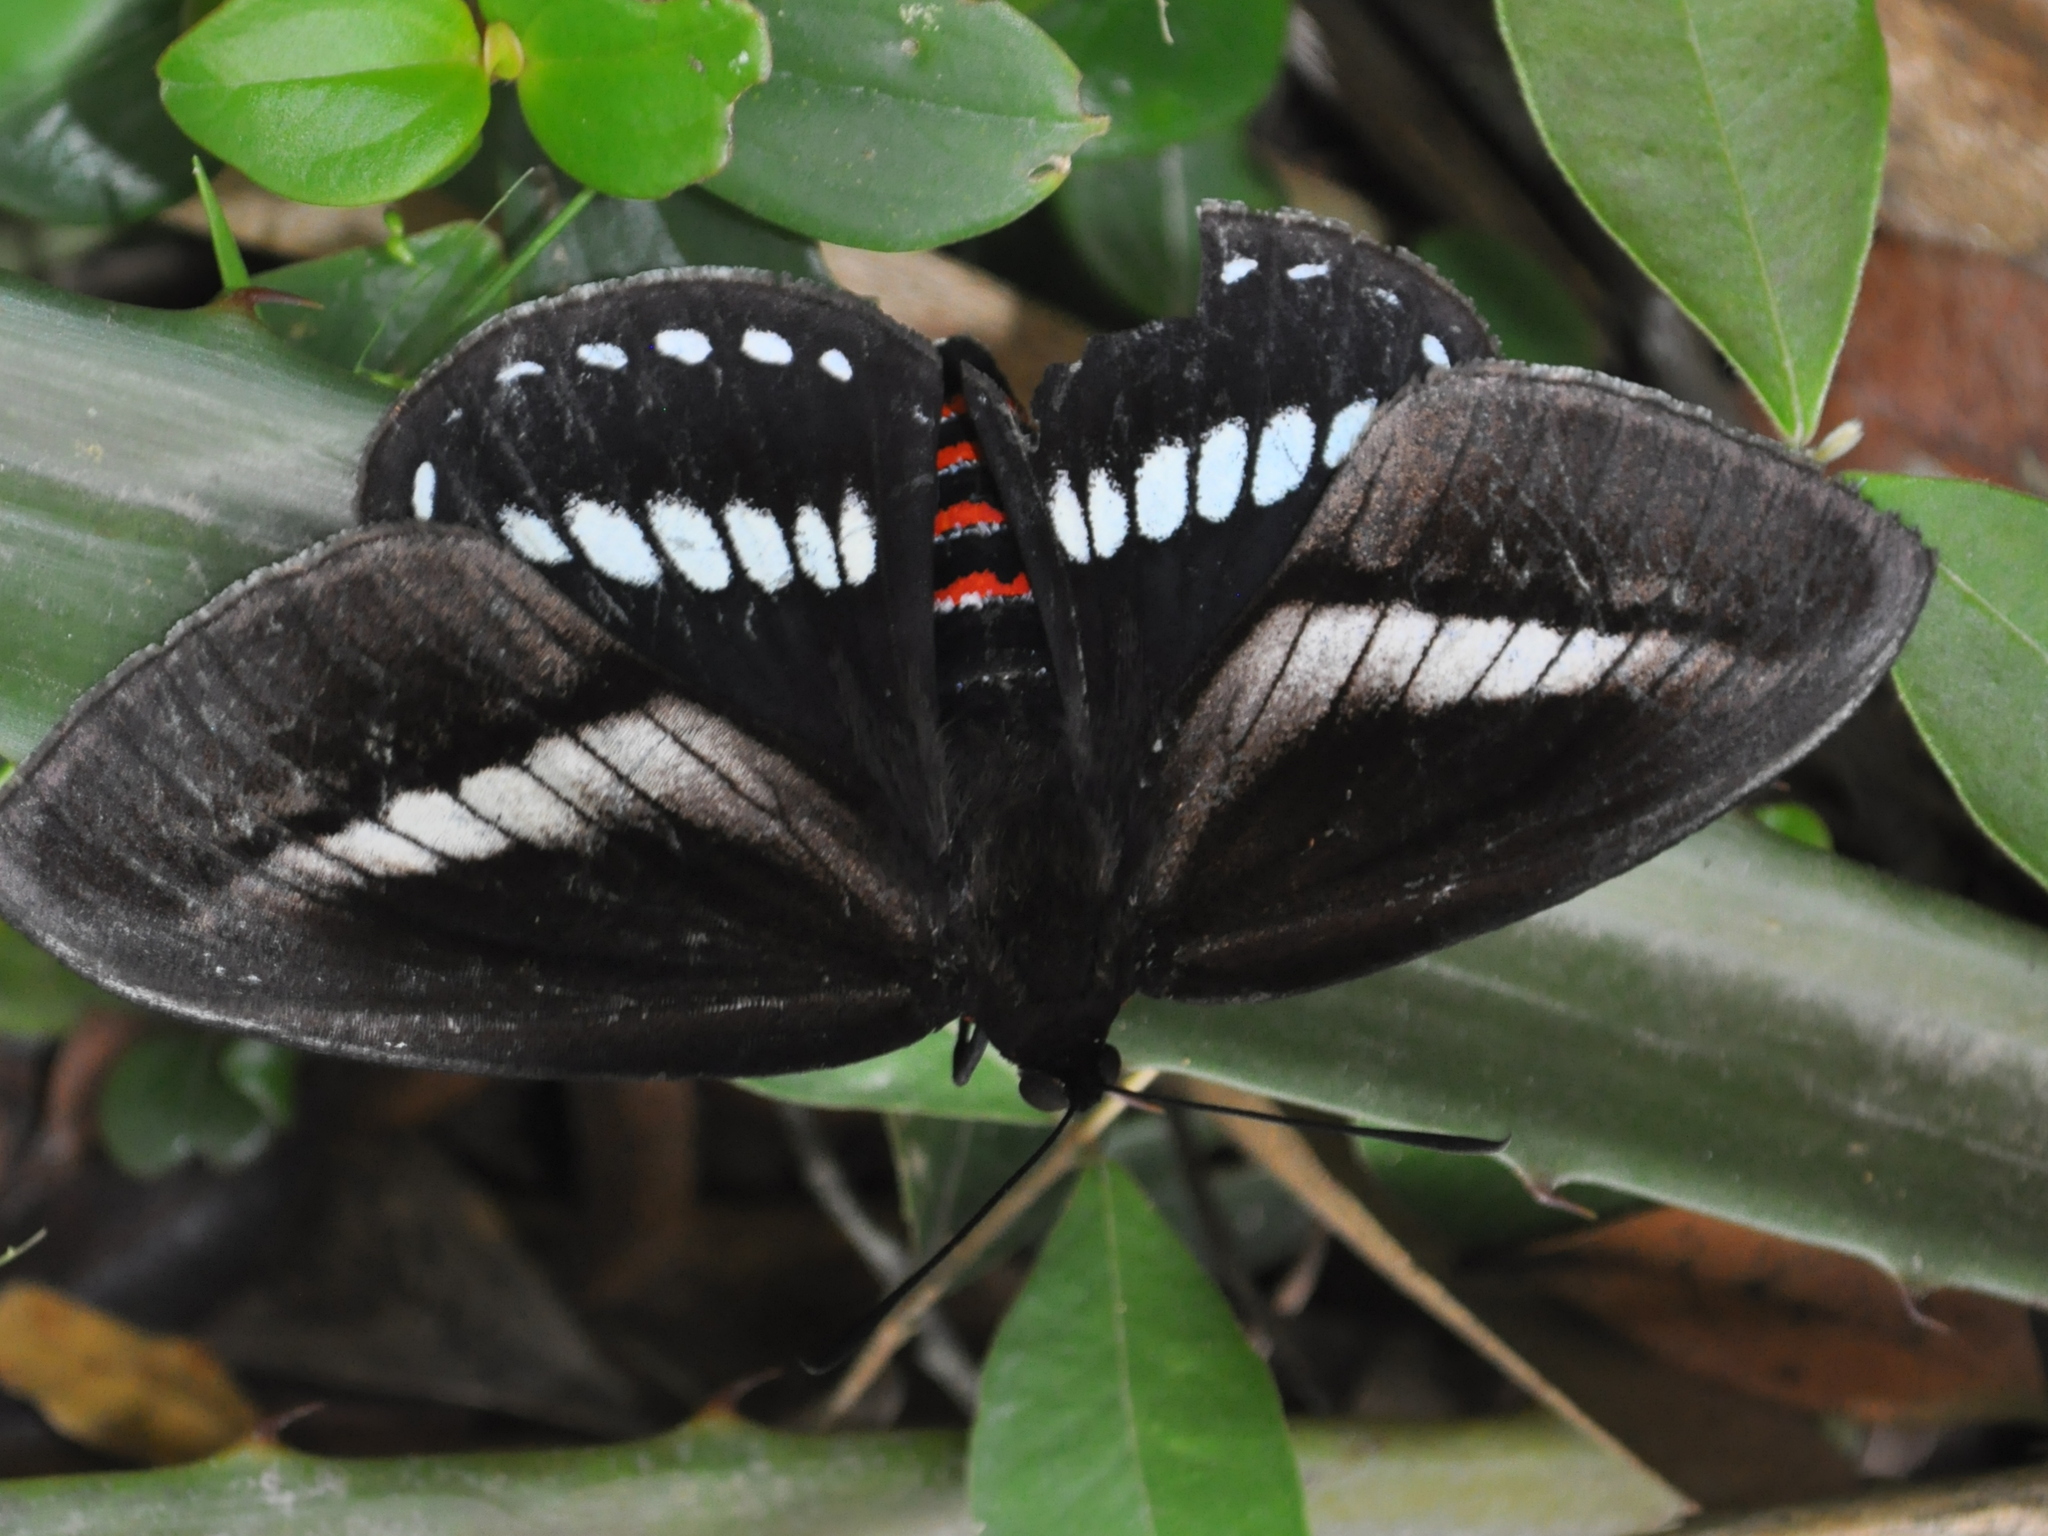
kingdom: Animalia
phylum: Arthropoda
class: Insecta
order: Lepidoptera
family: Castniidae
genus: Prometheus
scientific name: Prometheus cochrus
